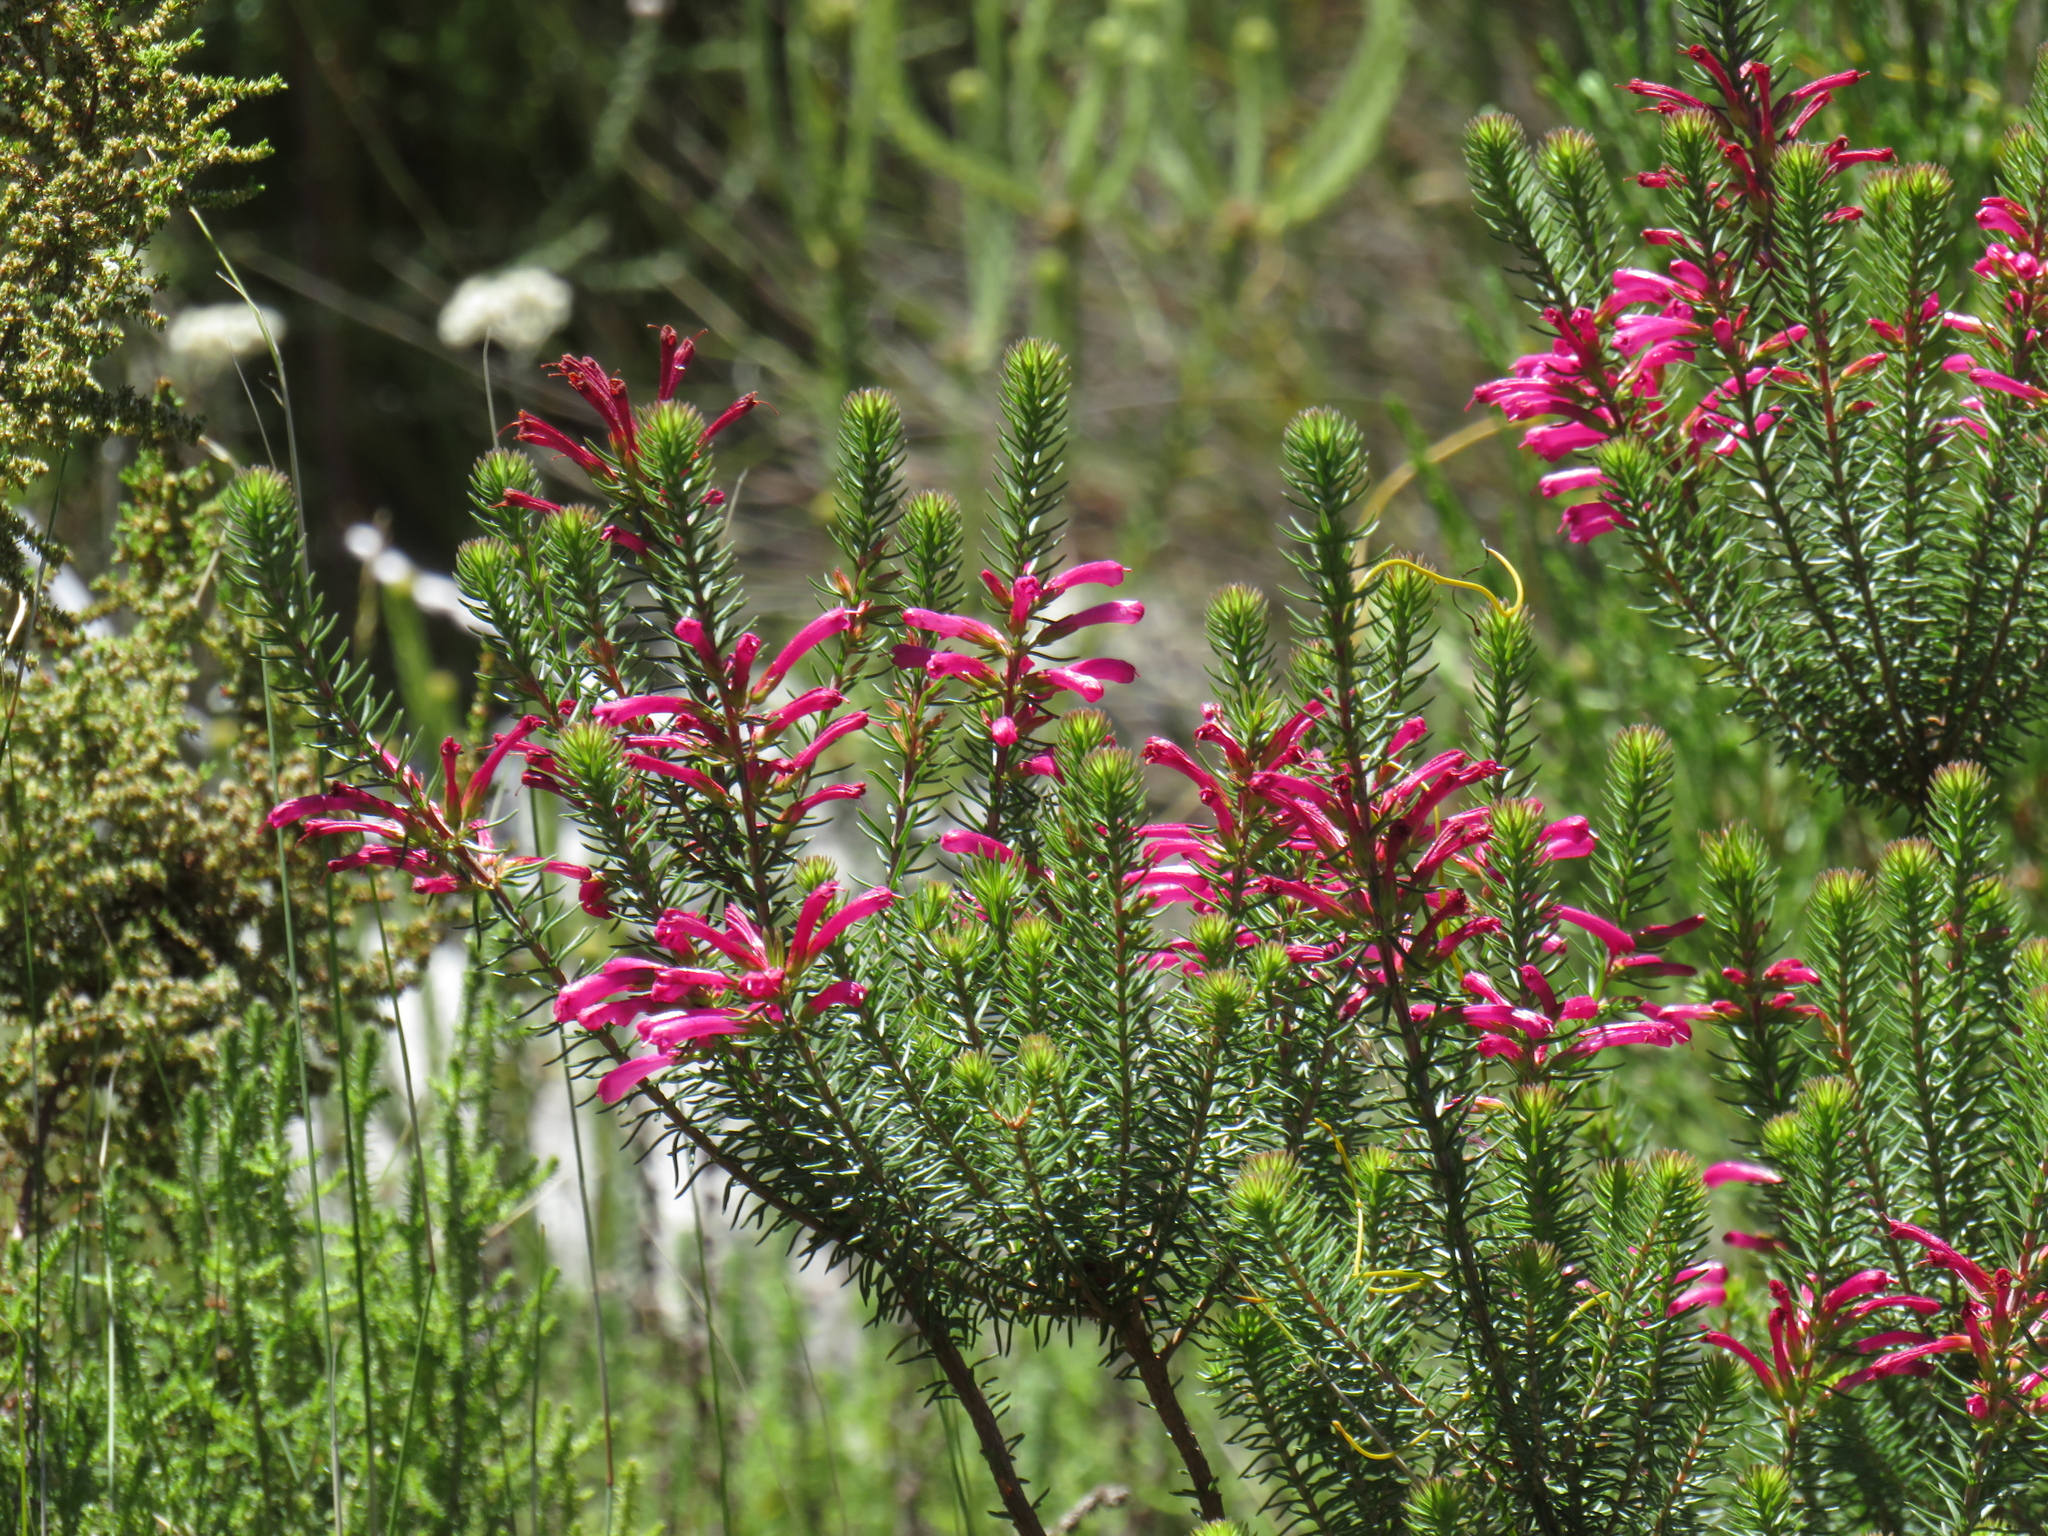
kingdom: Plantae
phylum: Tracheophyta
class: Magnoliopsida
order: Ericales
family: Ericaceae
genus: Erica
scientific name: Erica abietina
